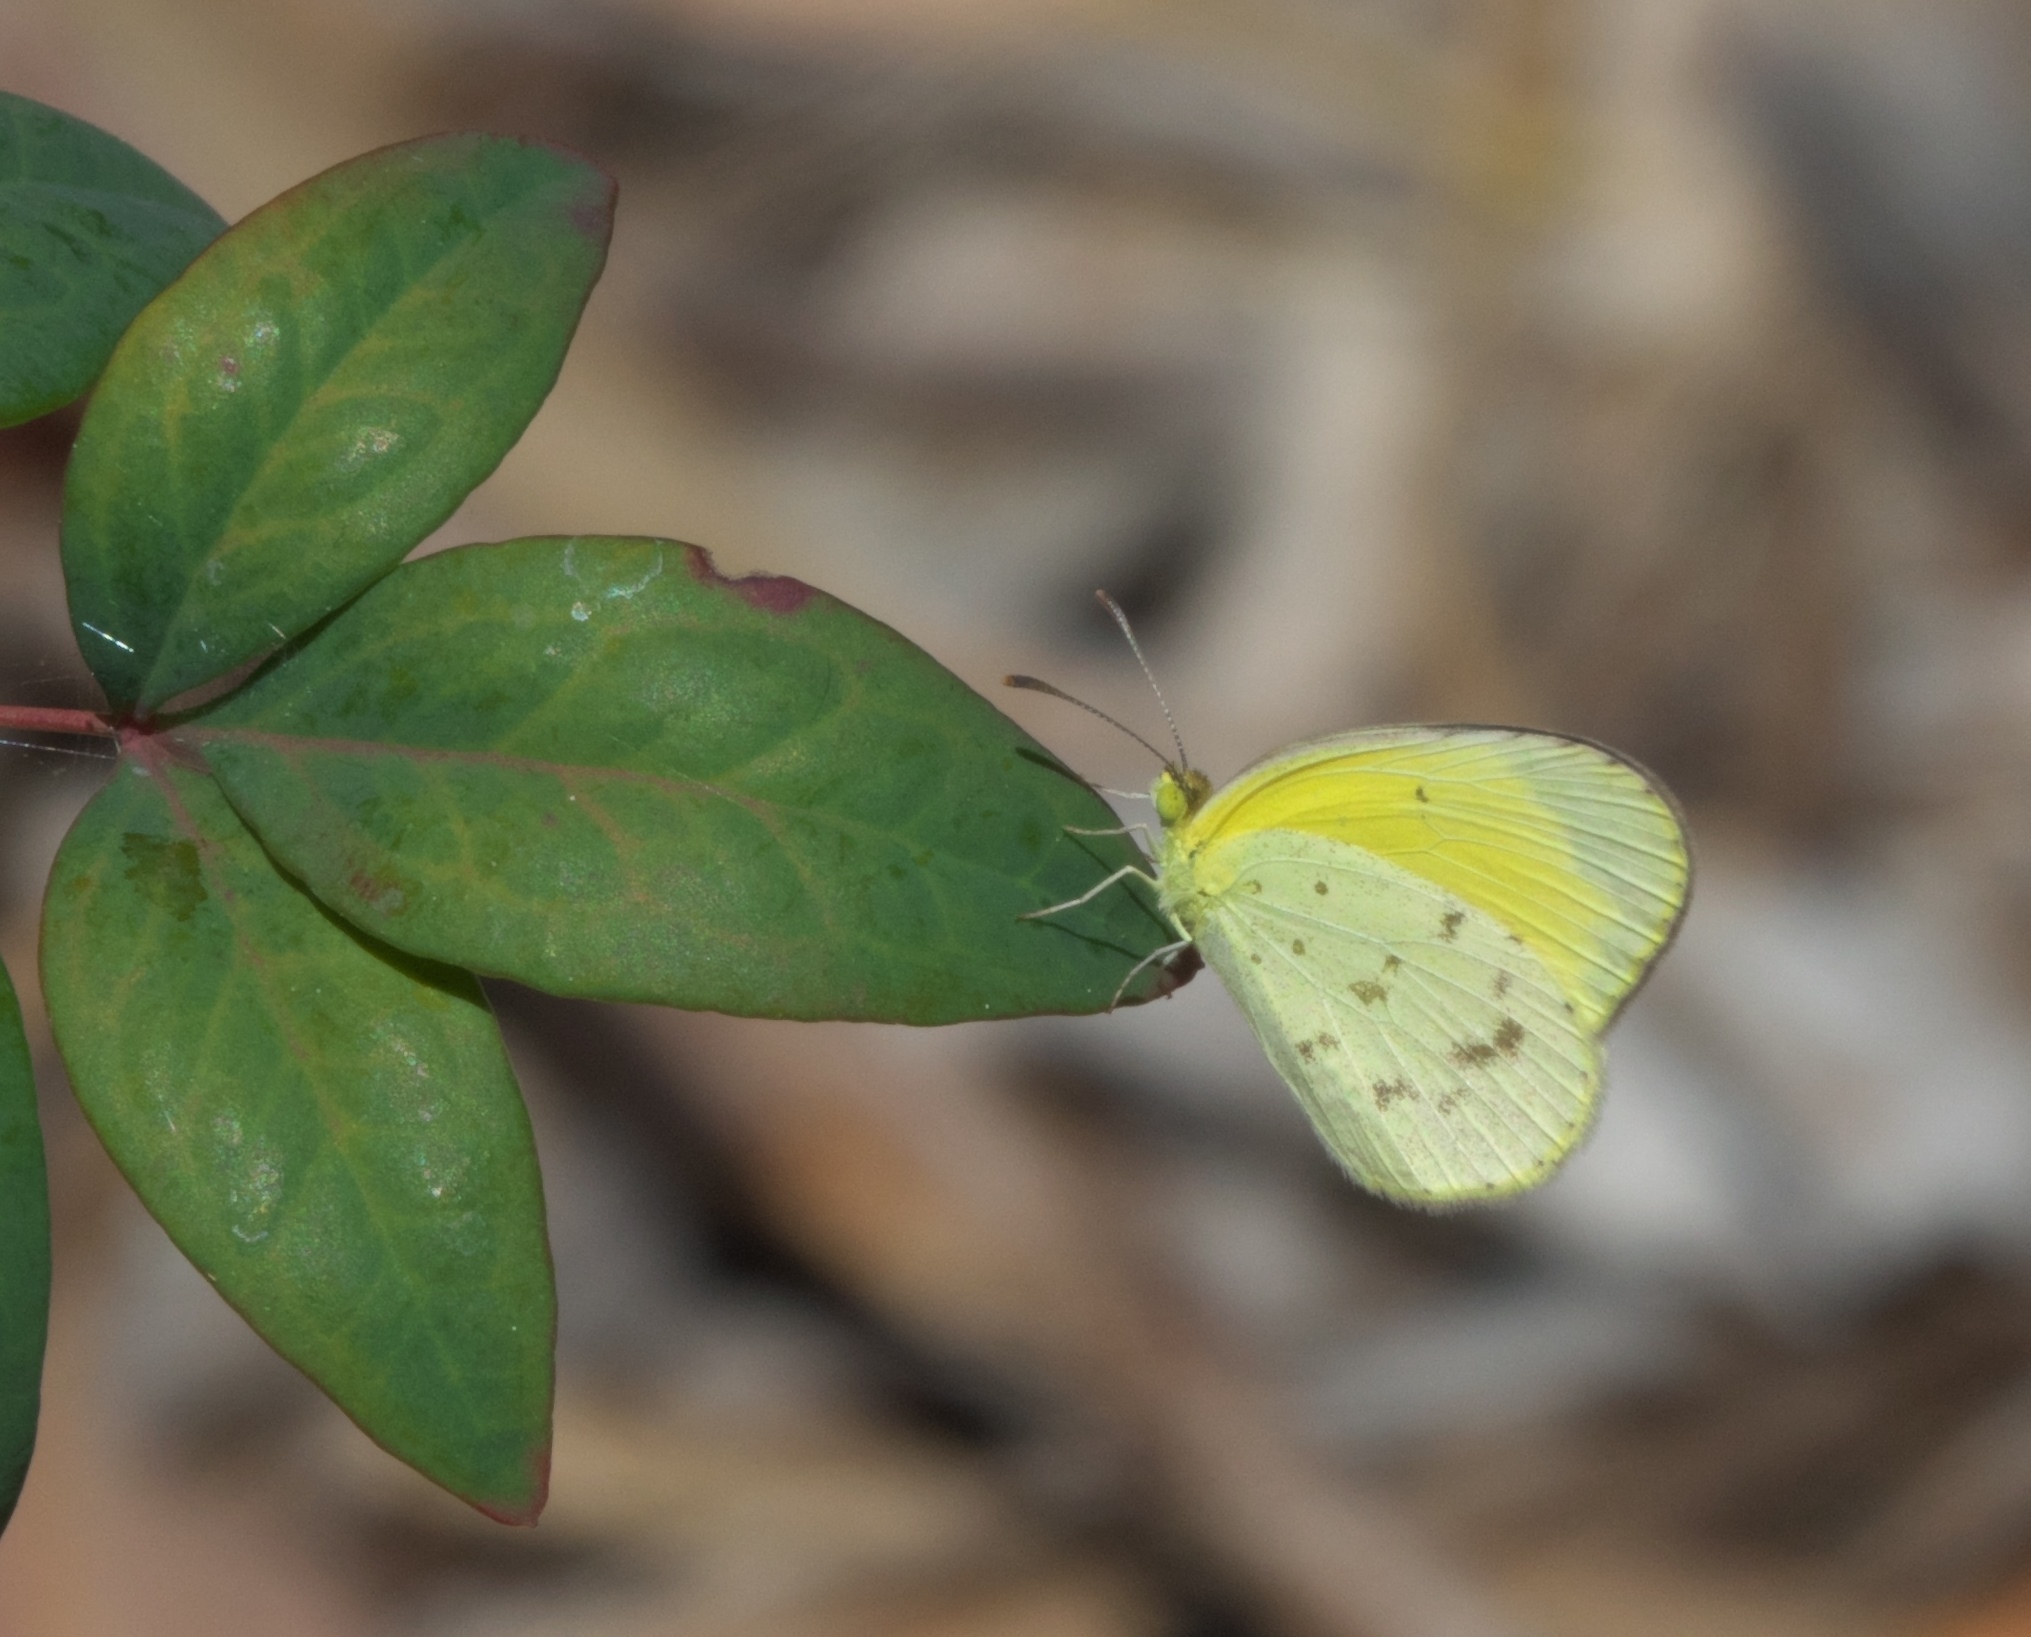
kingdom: Animalia
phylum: Arthropoda
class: Insecta
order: Lepidoptera
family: Pieridae
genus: Eurema
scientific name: Eurema smilax
